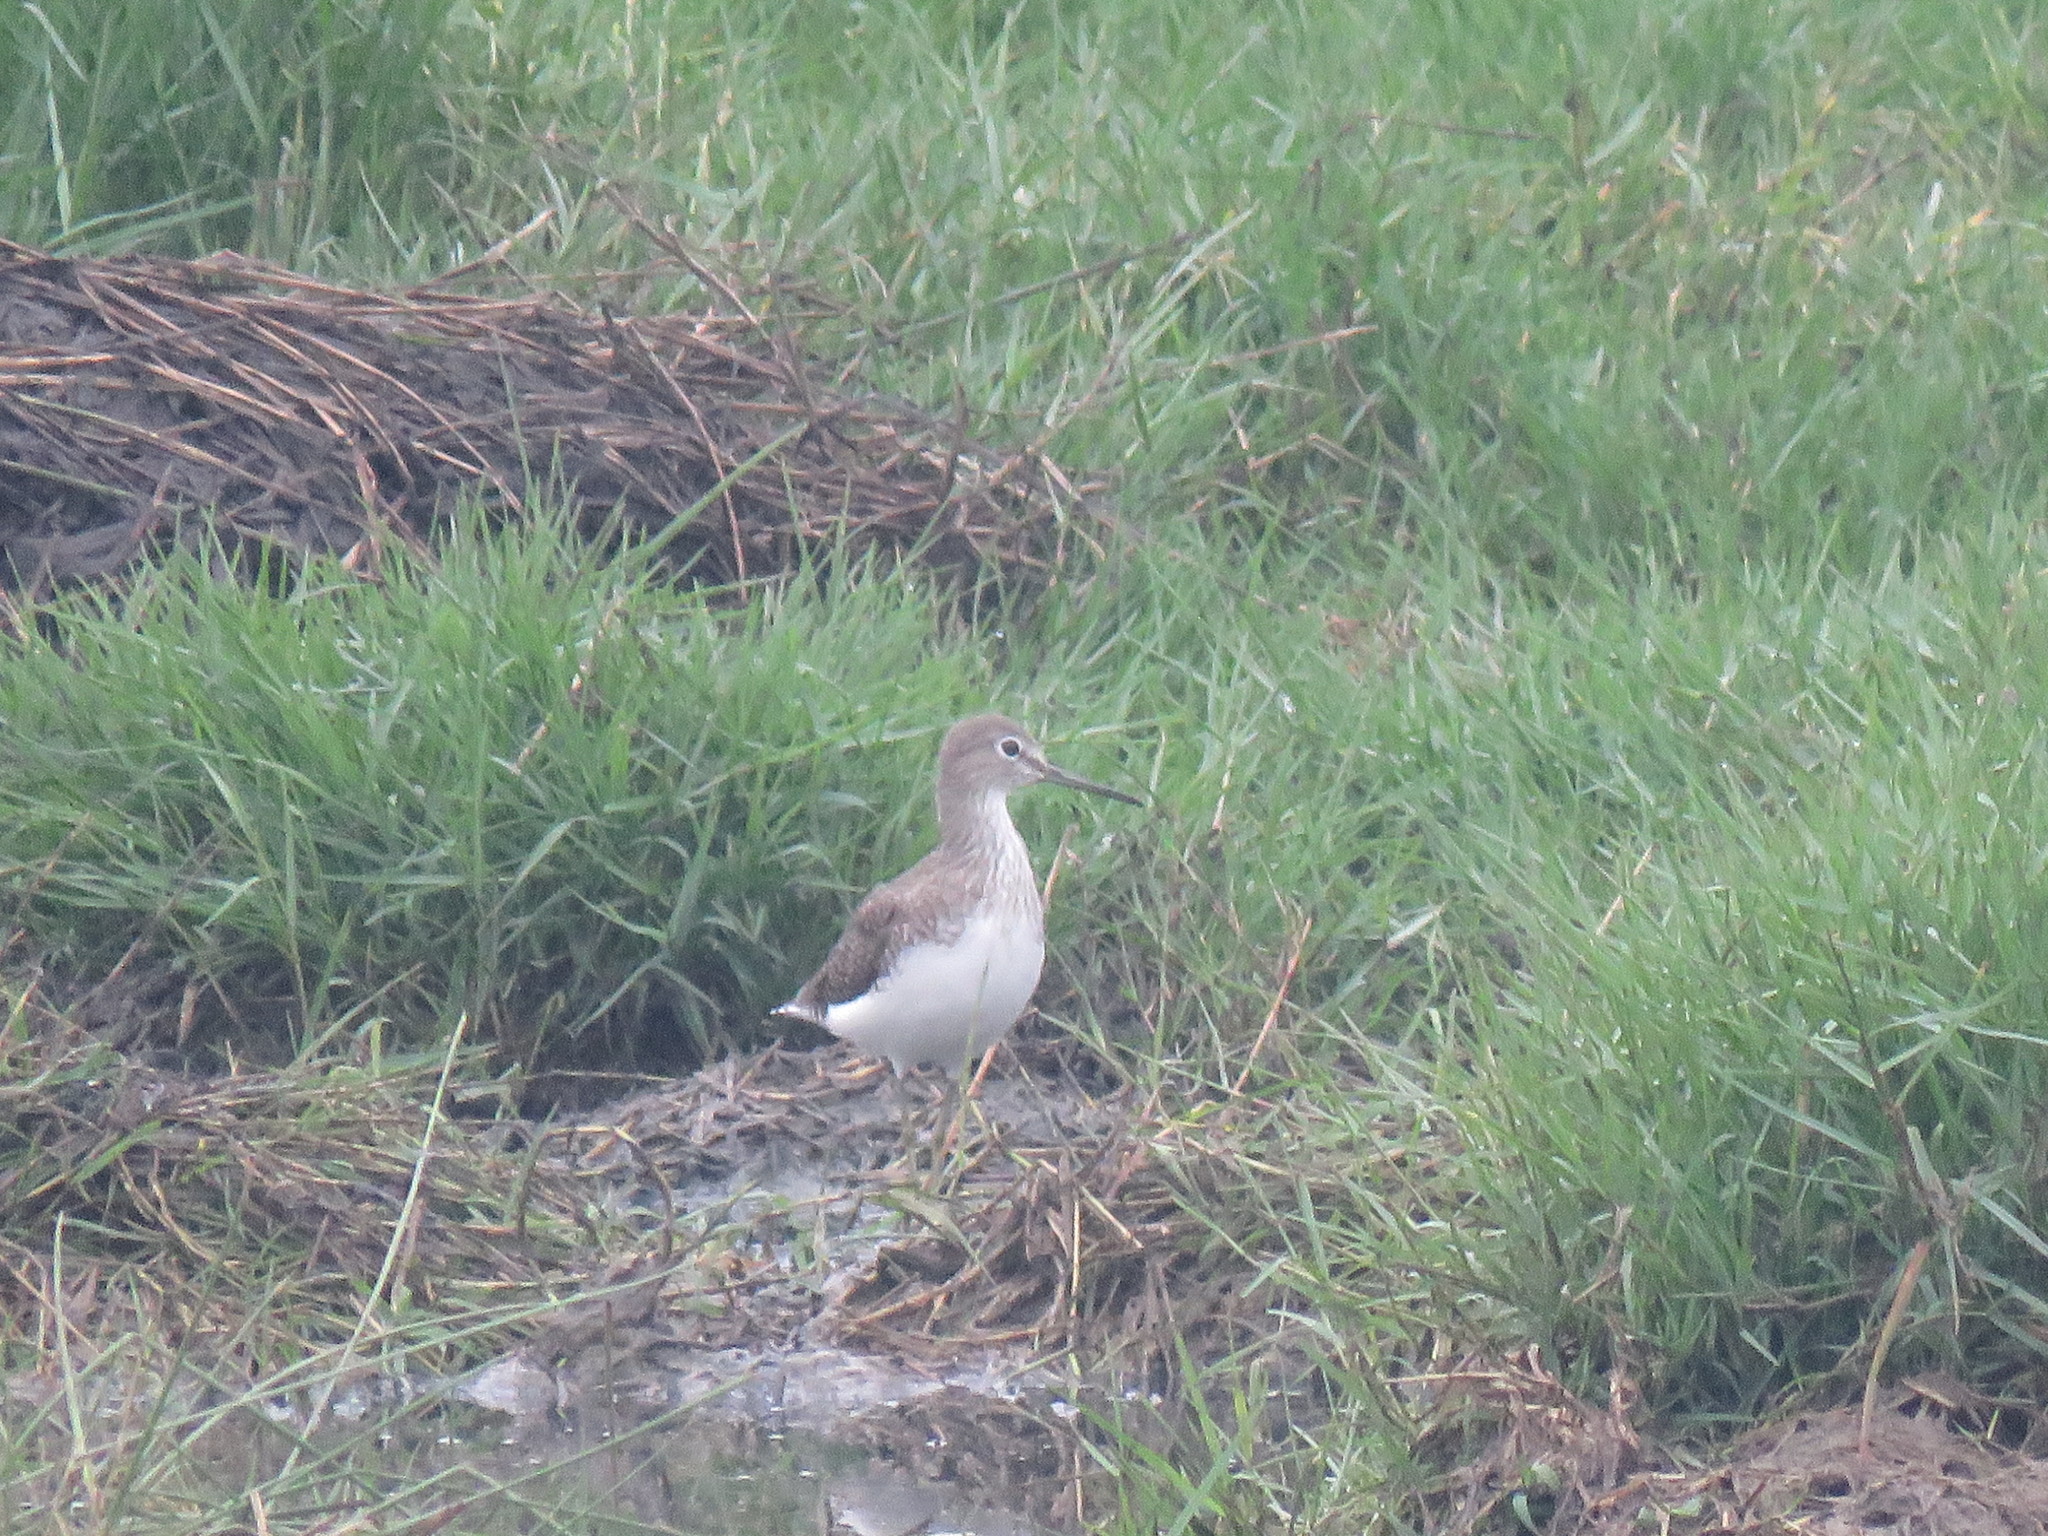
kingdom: Animalia
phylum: Chordata
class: Aves
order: Charadriiformes
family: Scolopacidae
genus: Tringa
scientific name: Tringa ochropus
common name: Green sandpiper
